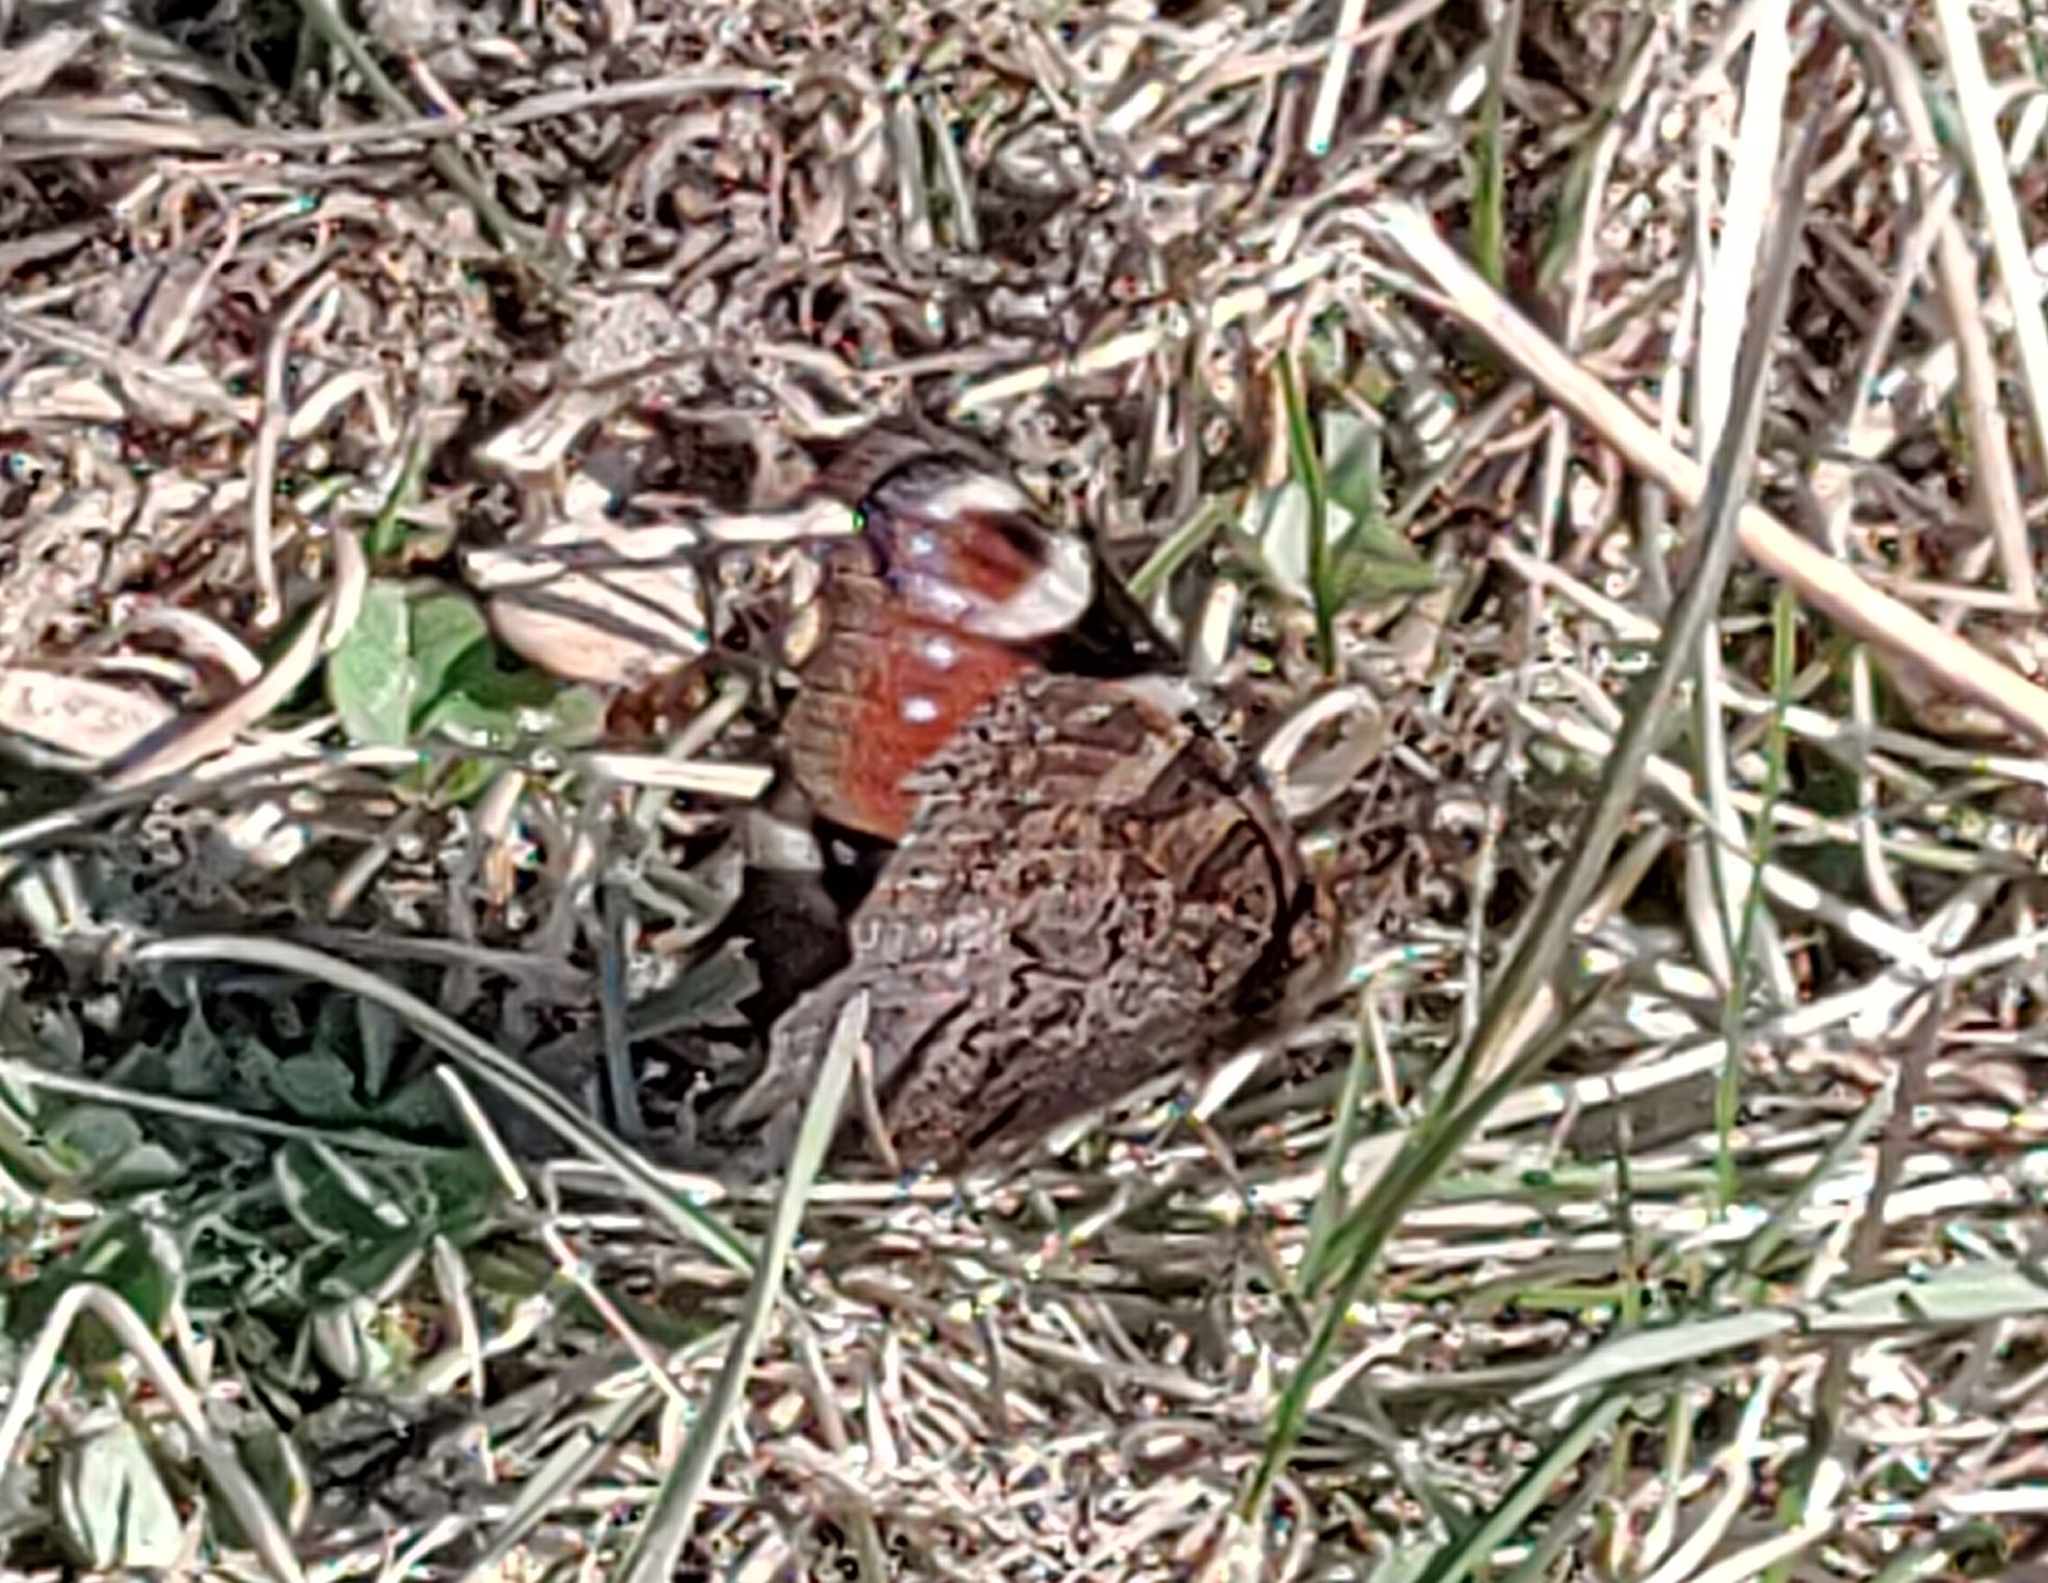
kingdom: Animalia
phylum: Arthropoda
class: Insecta
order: Lepidoptera
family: Nymphalidae
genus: Aglais
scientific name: Aglais io
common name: Peacock
